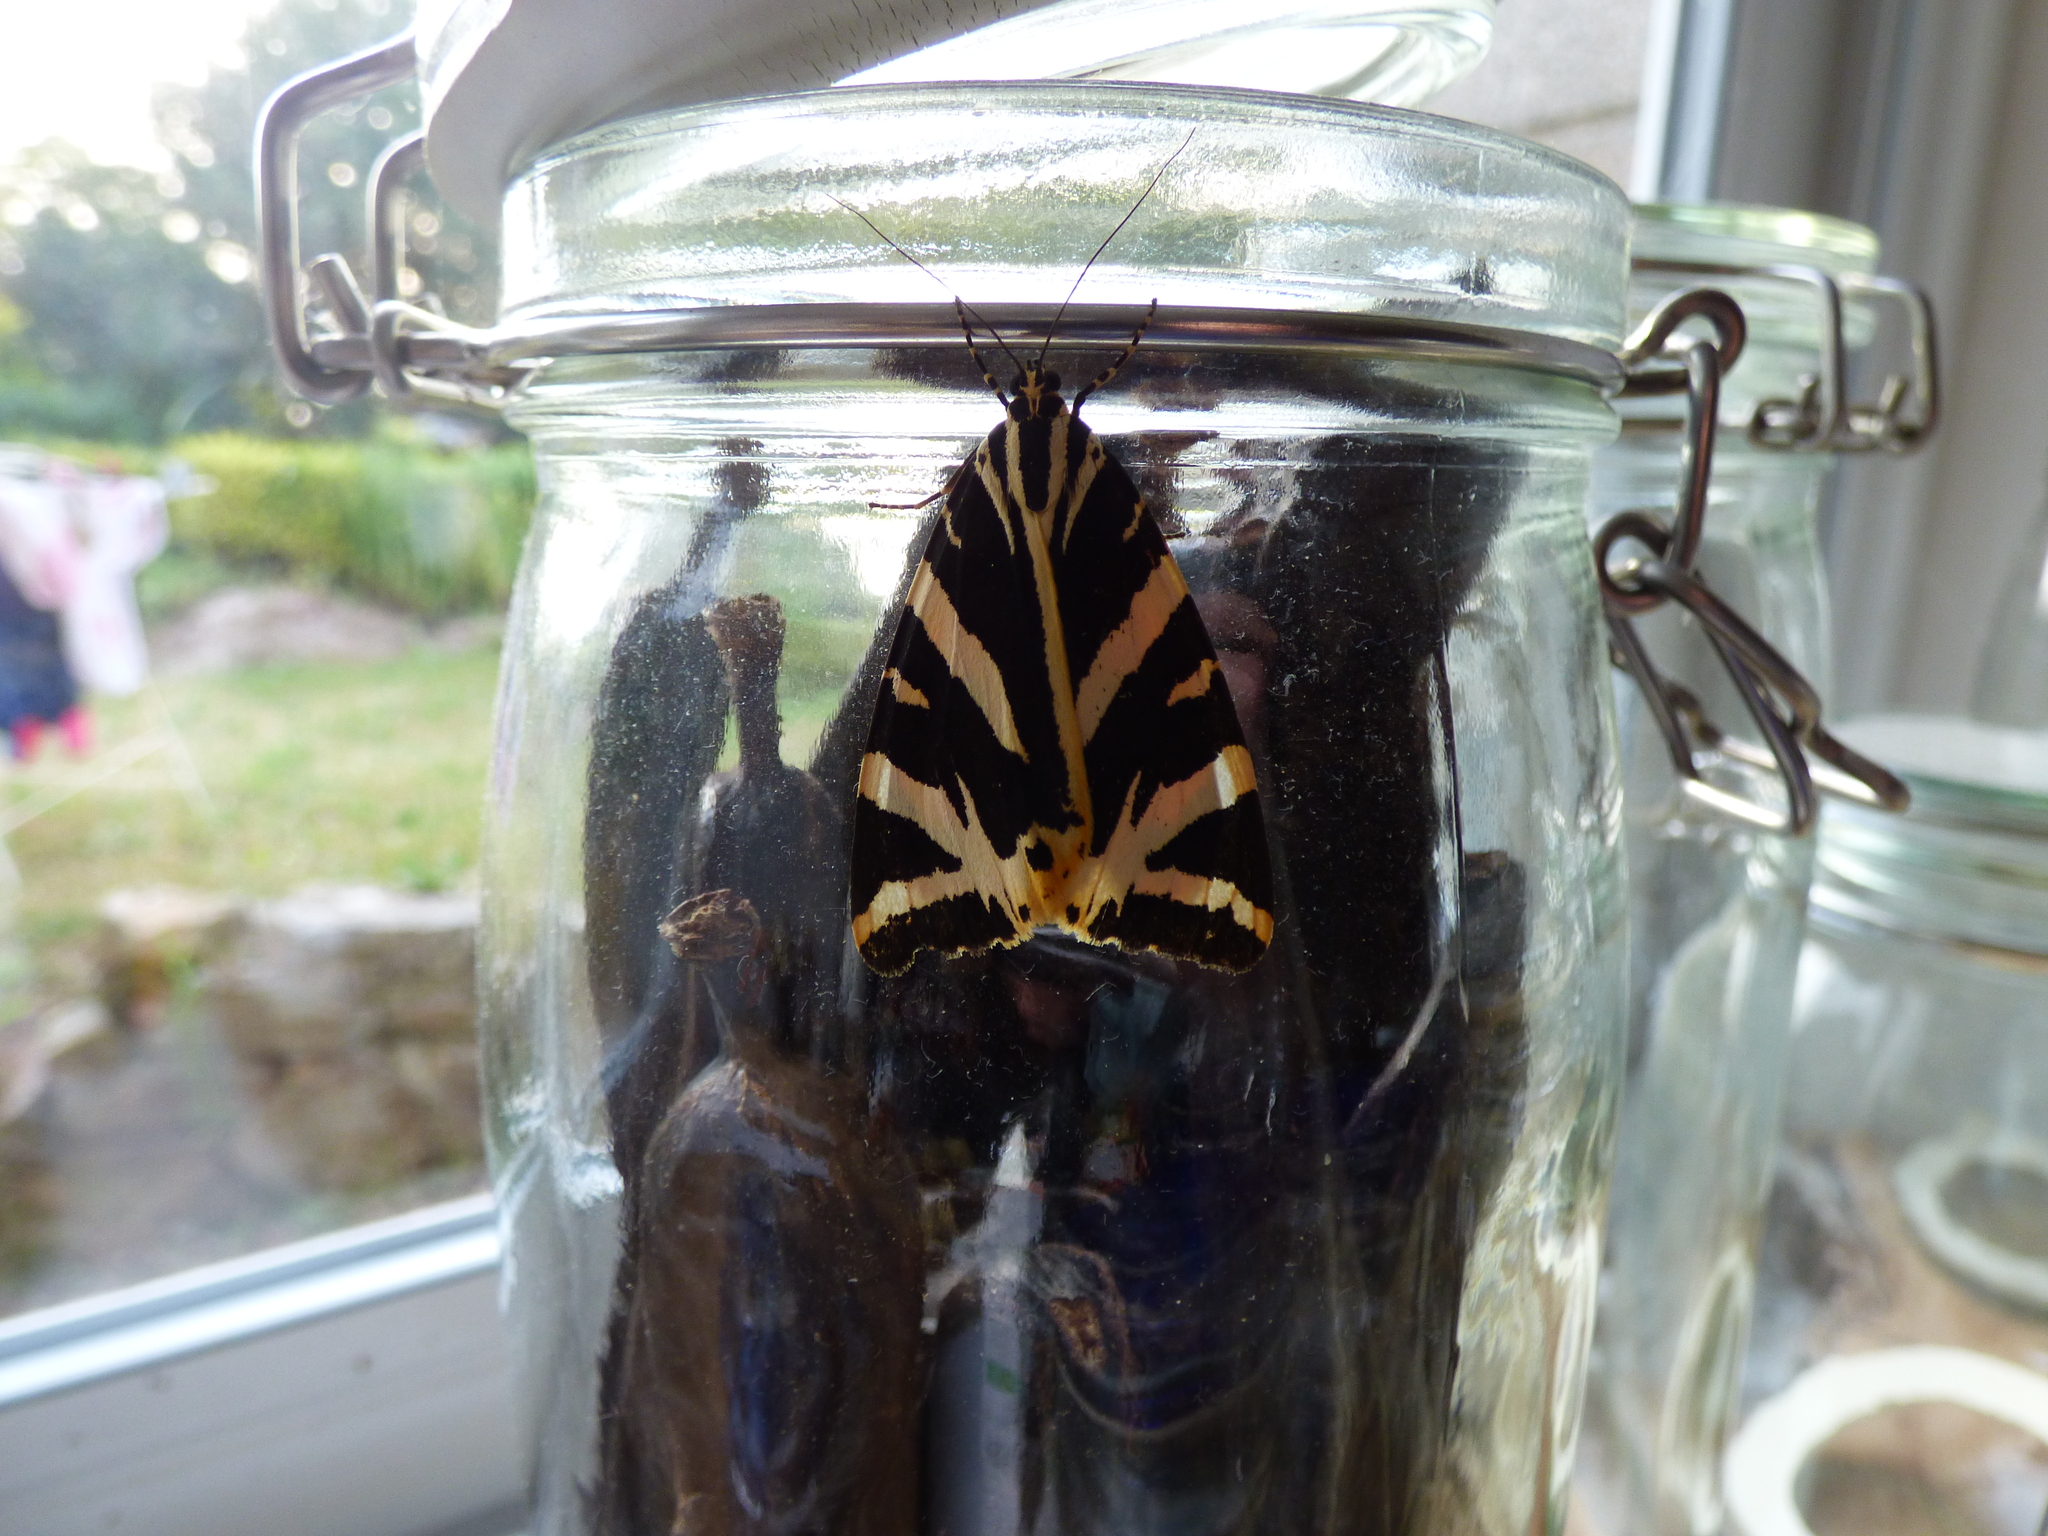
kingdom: Animalia
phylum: Arthropoda
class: Insecta
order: Lepidoptera
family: Erebidae
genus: Euplagia
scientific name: Euplagia quadripunctaria
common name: Jersey tiger
